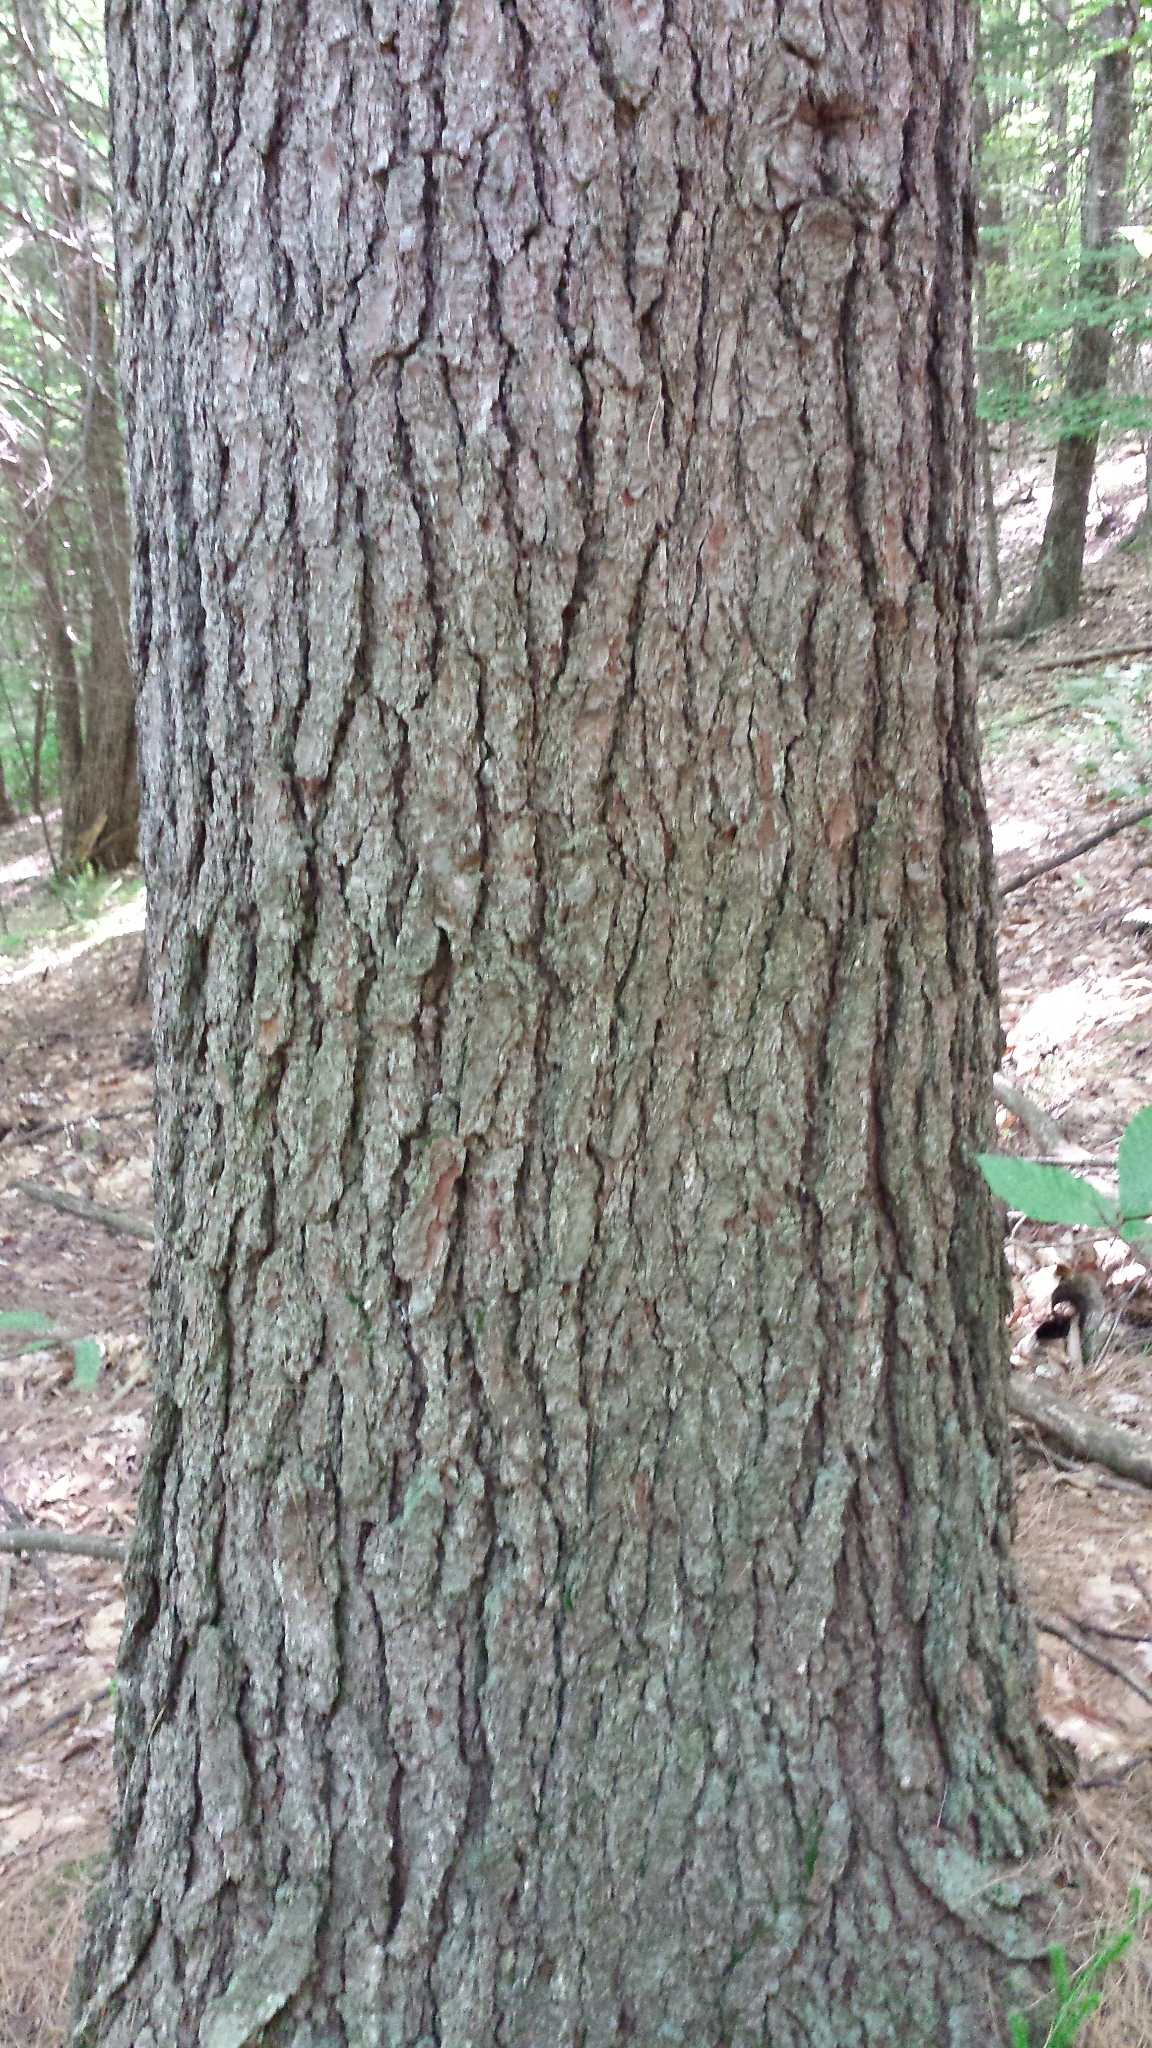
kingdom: Plantae
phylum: Tracheophyta
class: Pinopsida
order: Pinales
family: Pinaceae
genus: Tsuga
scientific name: Tsuga canadensis
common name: Eastern hemlock
